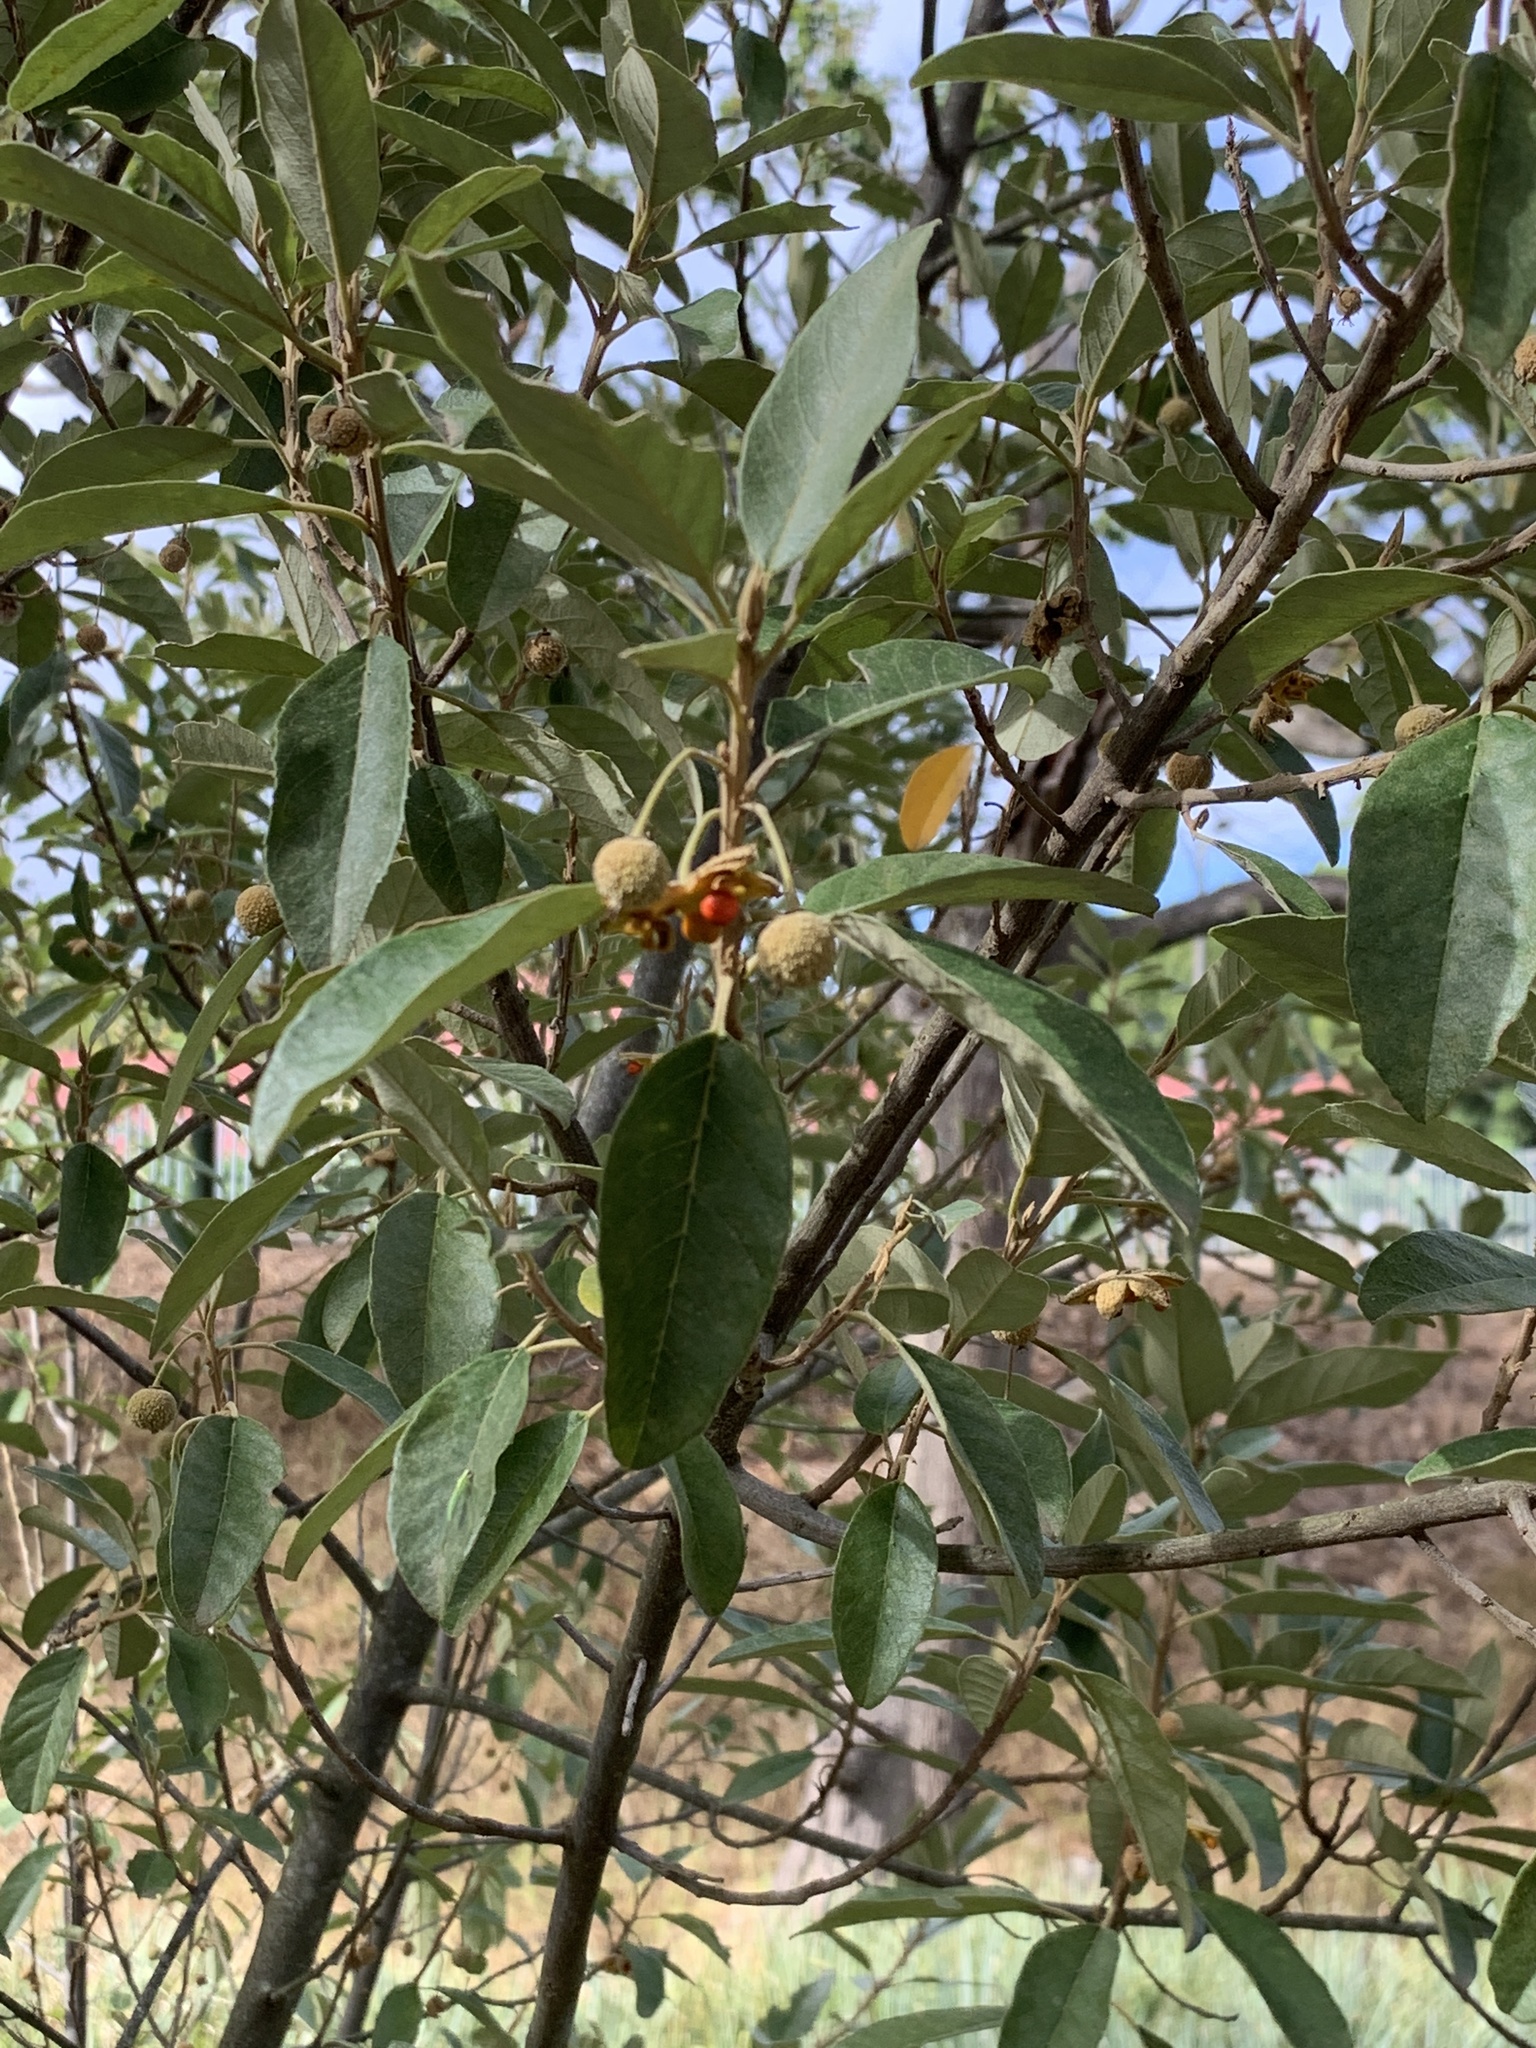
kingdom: Plantae
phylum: Tracheophyta
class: Magnoliopsida
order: Malpighiales
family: Achariaceae
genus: Kiggelaria
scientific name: Kiggelaria africana
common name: Wild peach
